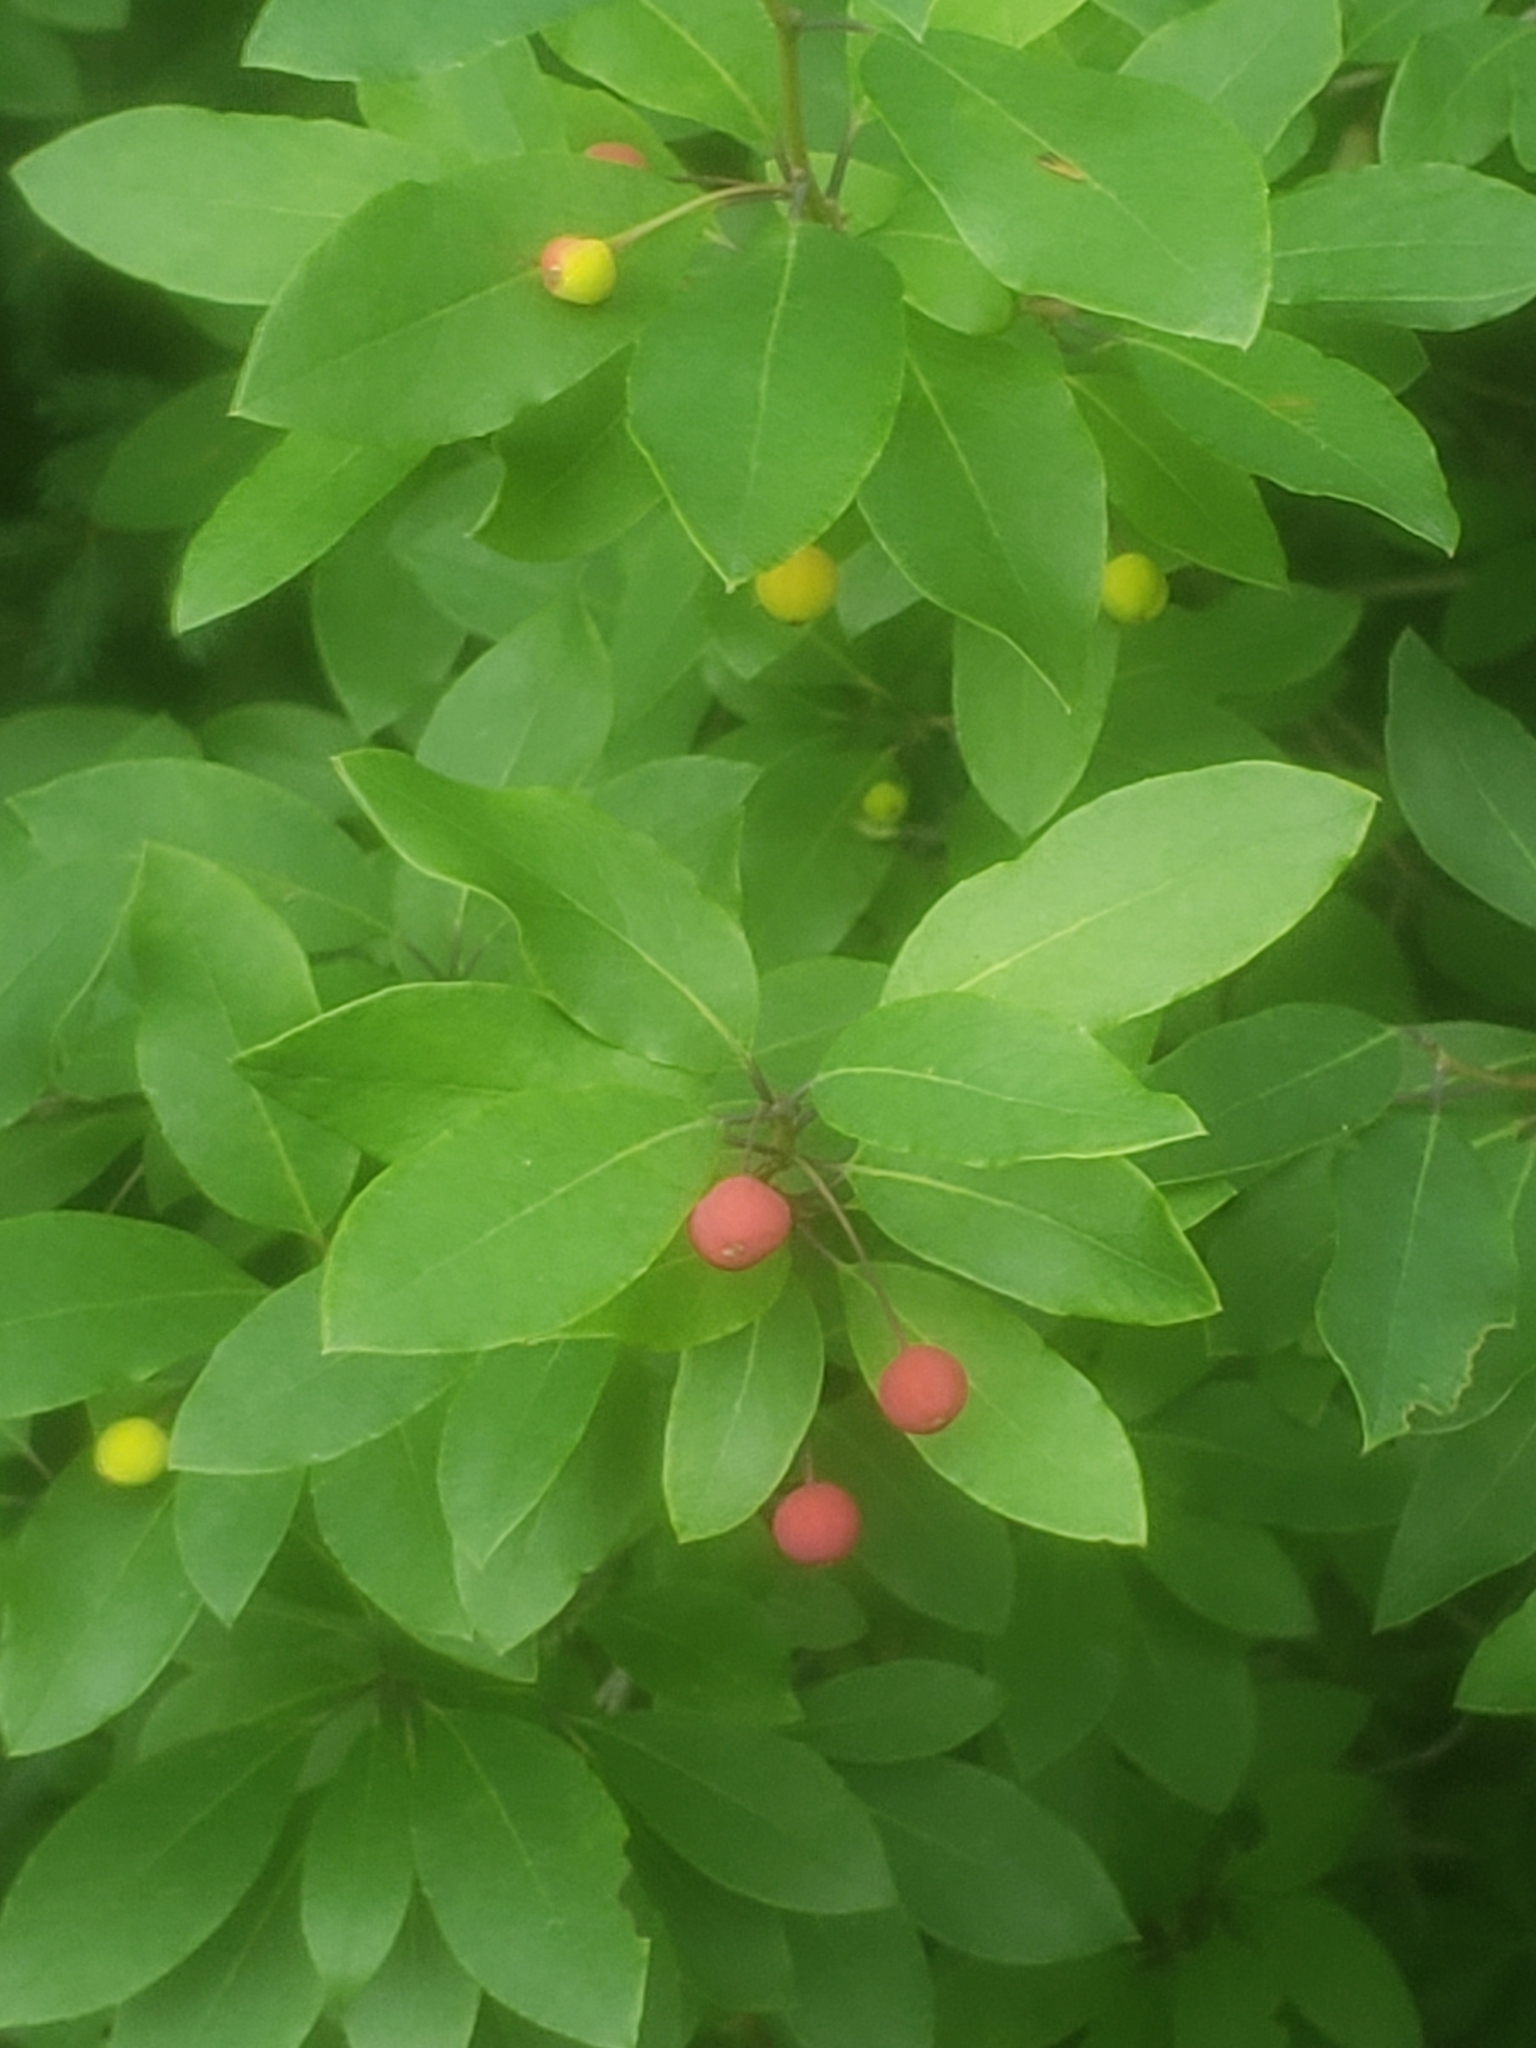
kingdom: Plantae
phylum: Tracheophyta
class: Magnoliopsida
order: Aquifoliales
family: Aquifoliaceae
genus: Ilex
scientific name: Ilex mucronata
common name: Catberry
